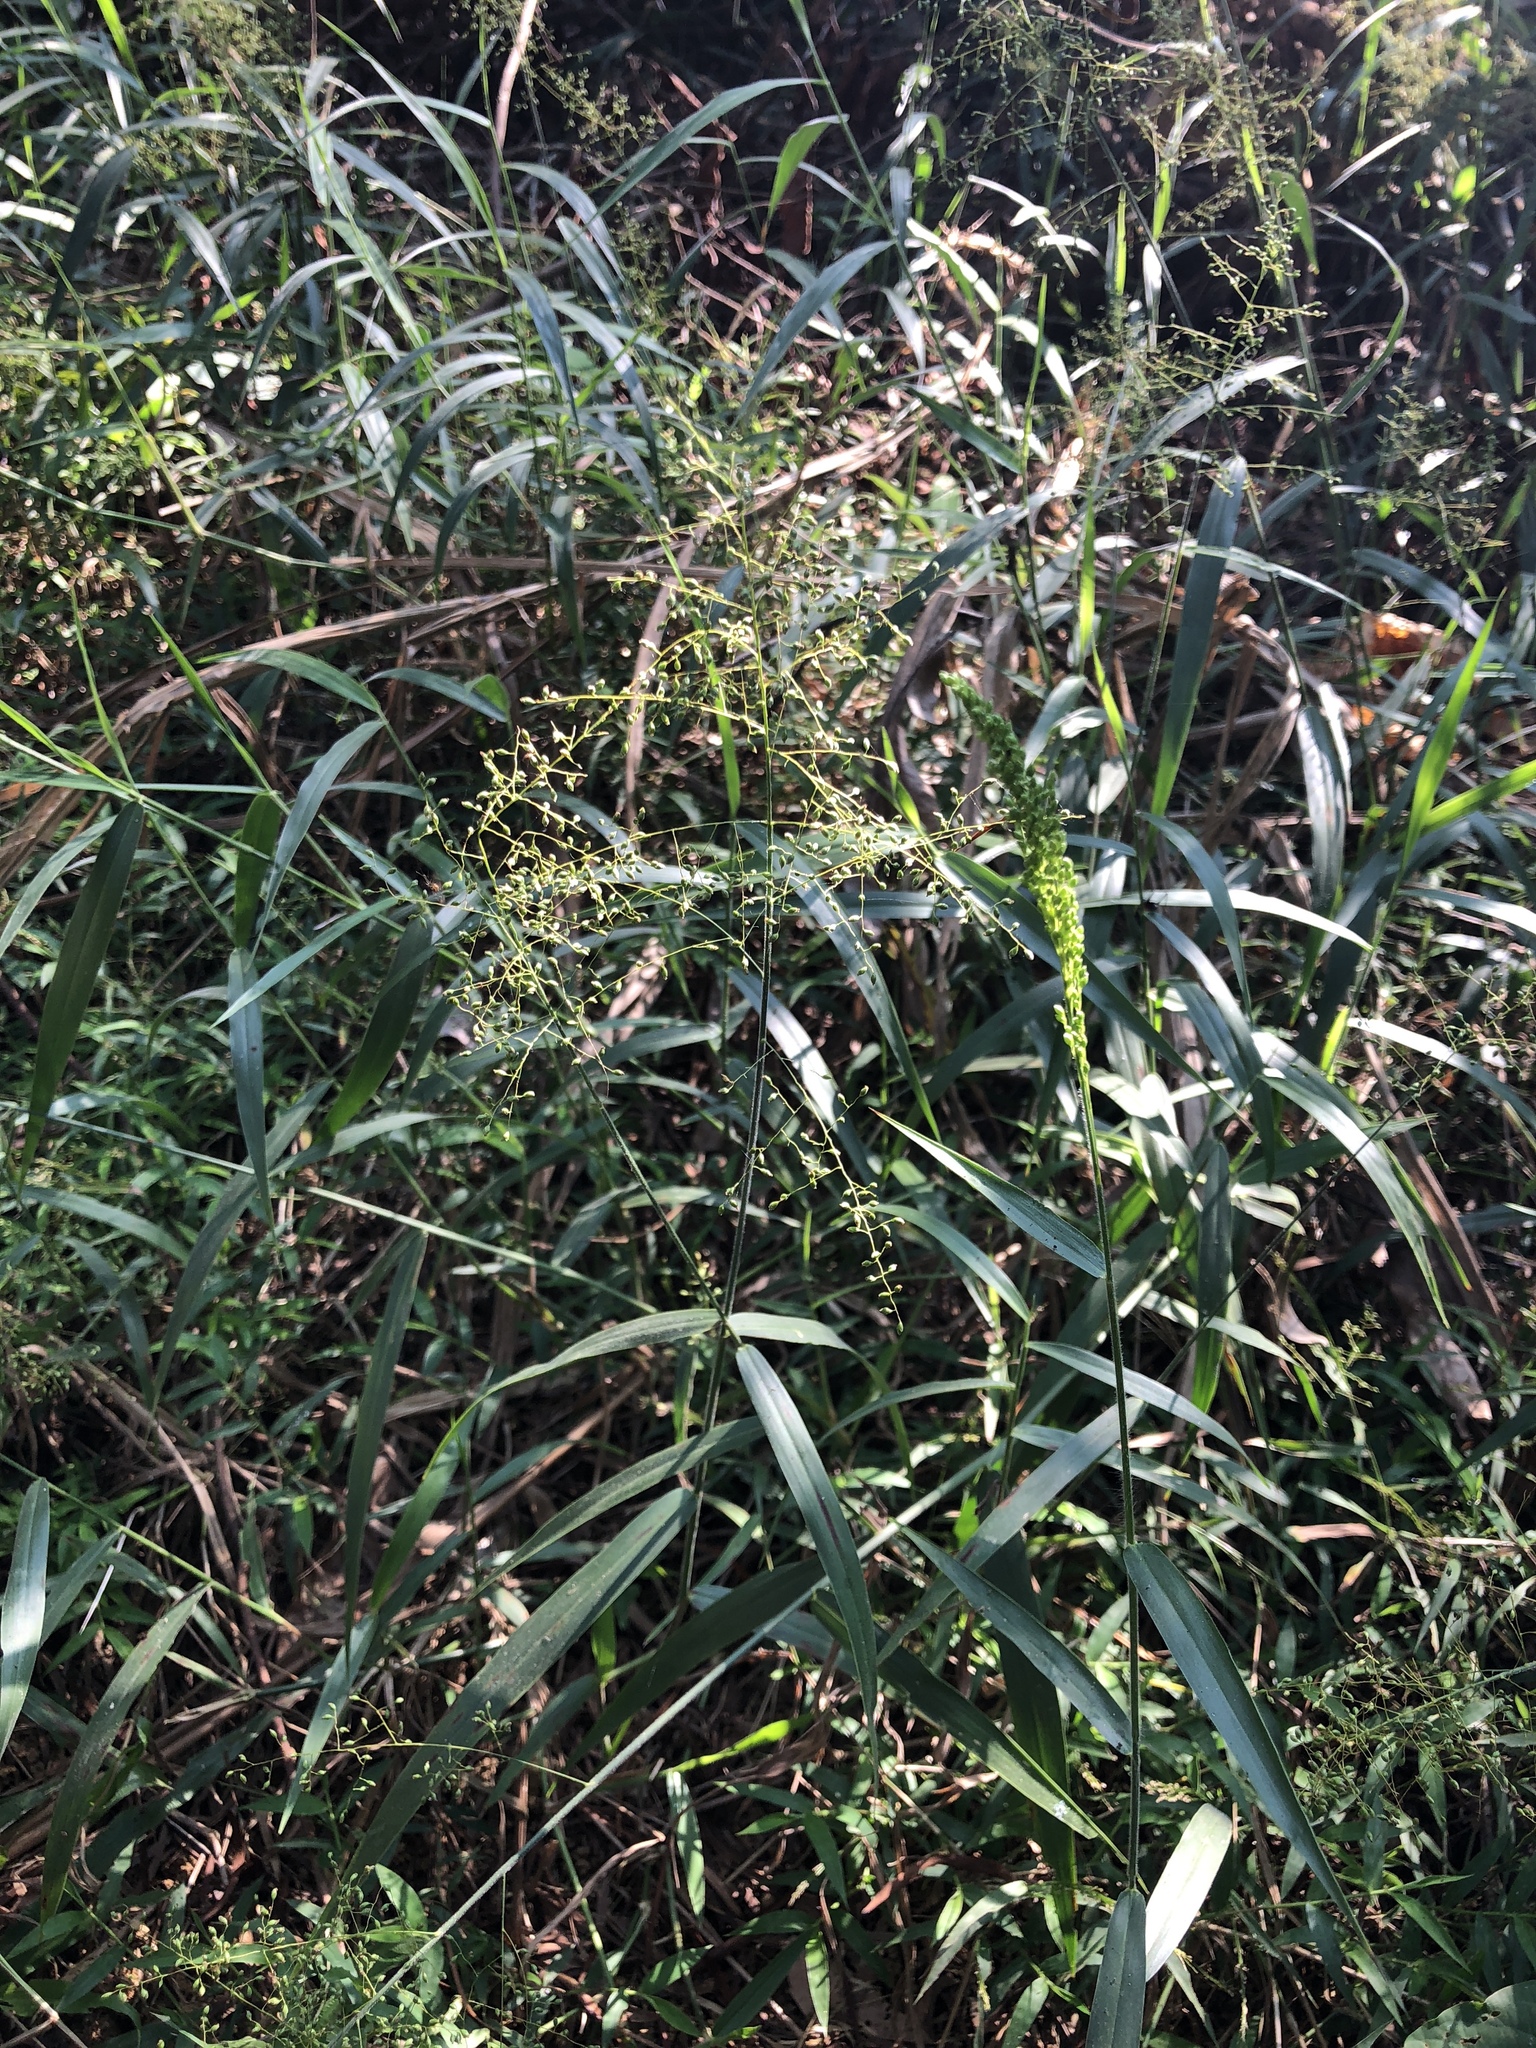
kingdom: Plantae
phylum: Tracheophyta
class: Liliopsida
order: Poales
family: Poaceae
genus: Panicum
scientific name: Panicum sarmentosum
